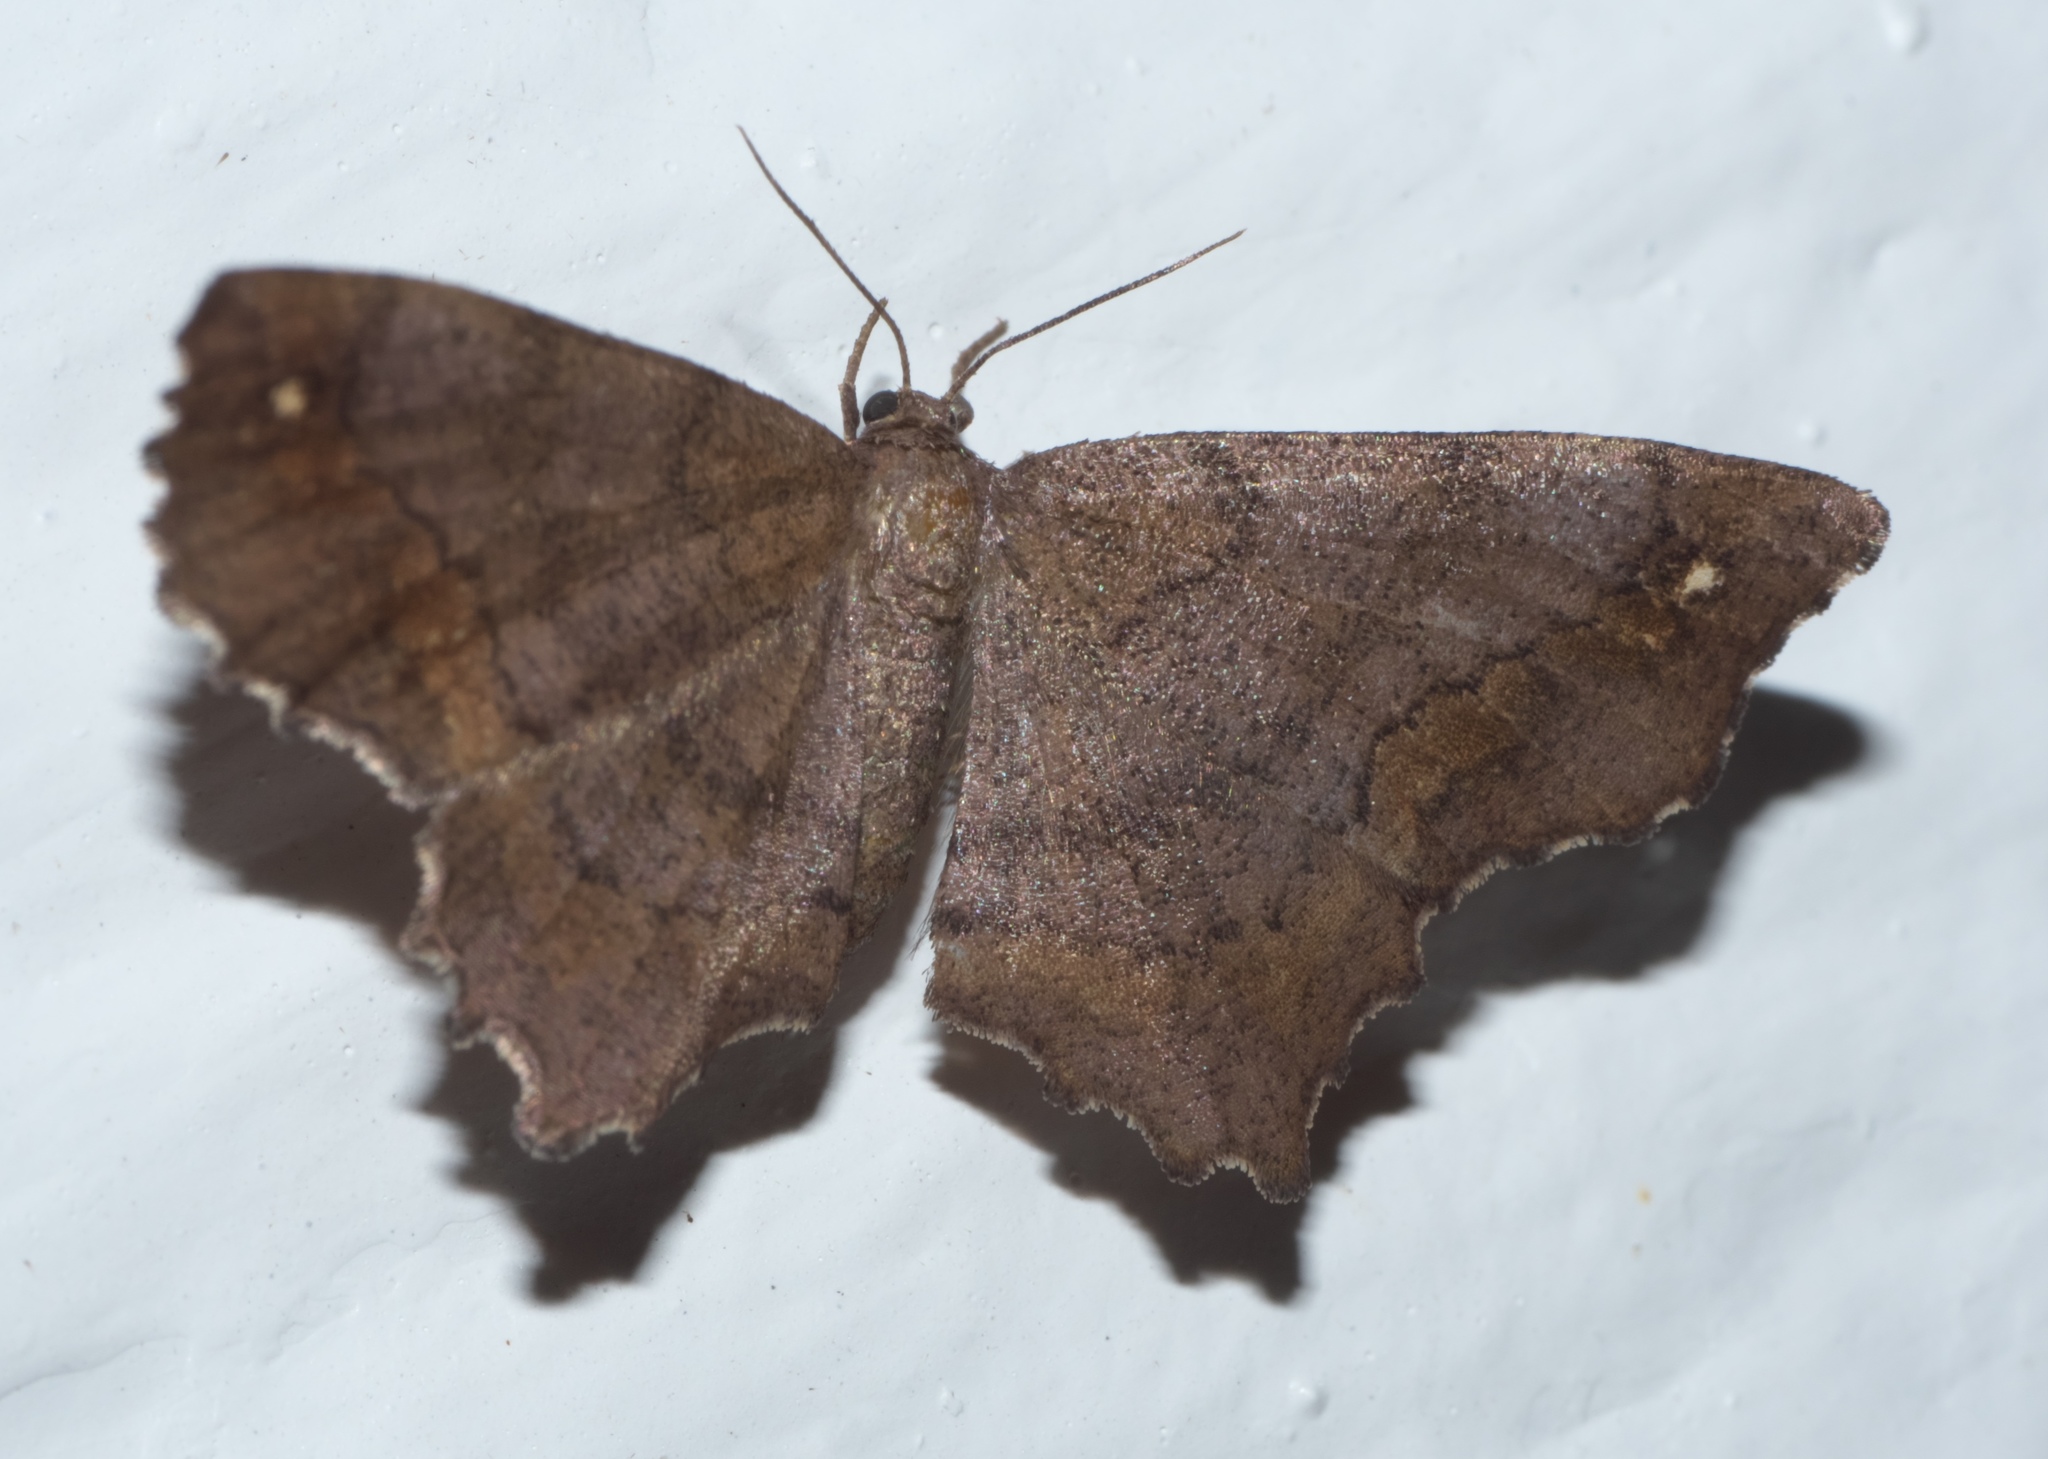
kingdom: Animalia
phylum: Arthropoda
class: Insecta
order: Lepidoptera
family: Geometridae
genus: Hypagyrtis
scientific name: Hypagyrtis esther
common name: Esther moth
